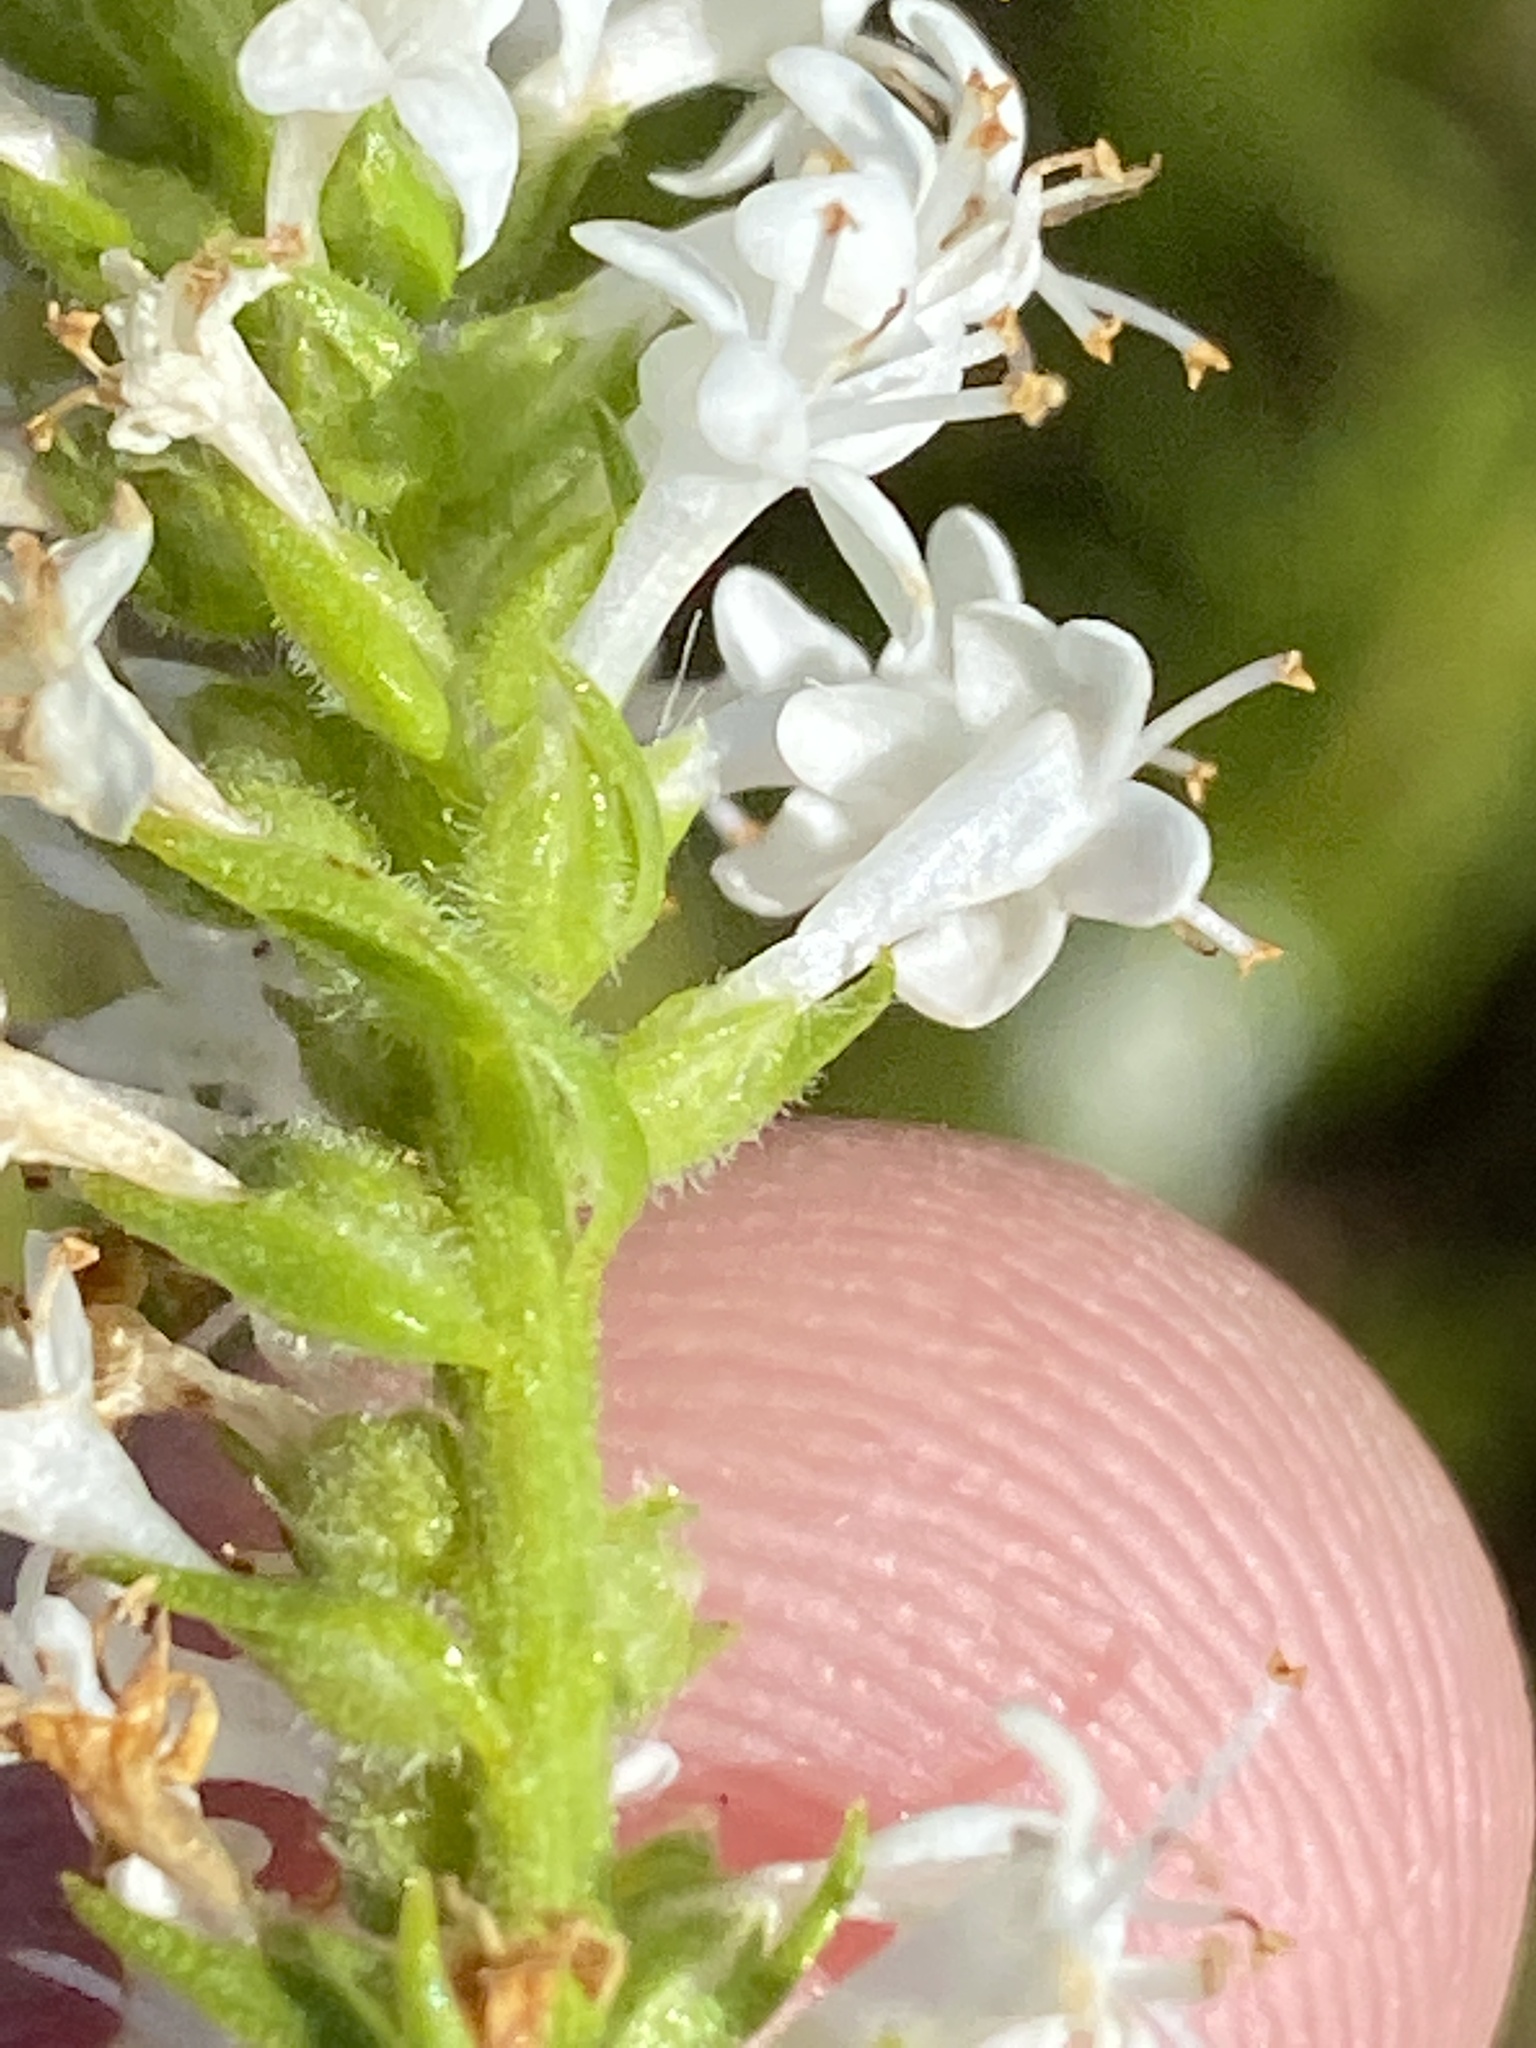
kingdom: Plantae
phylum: Tracheophyta
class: Magnoliopsida
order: Lamiales
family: Scrophulariaceae
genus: Selago
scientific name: Selago eckloniana
